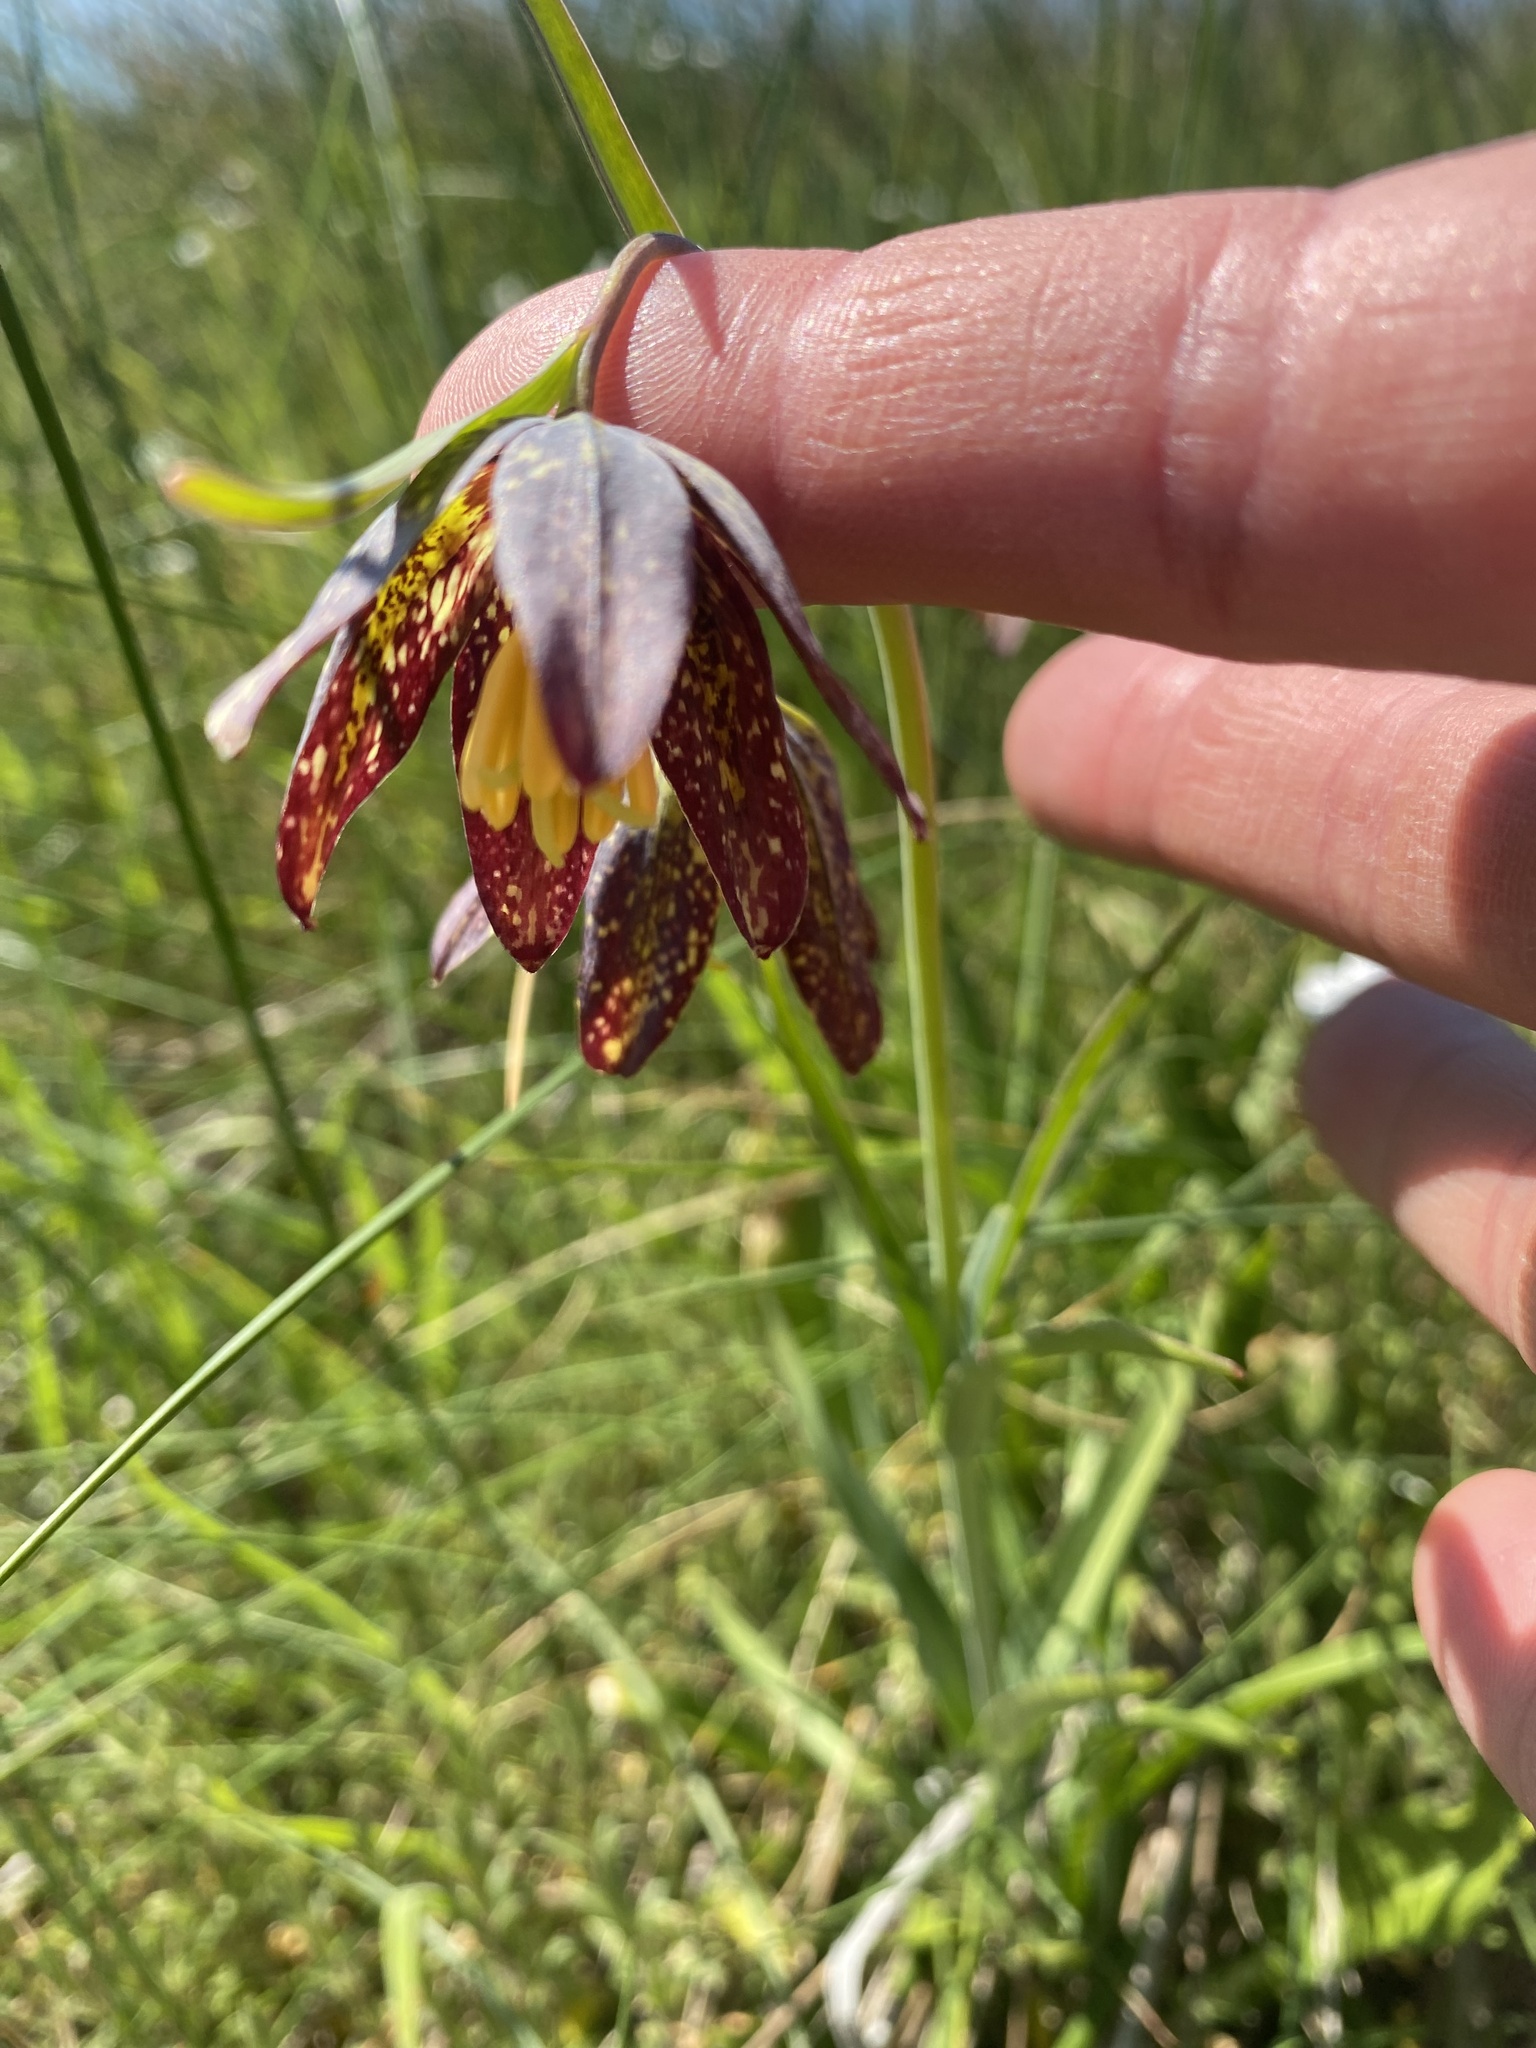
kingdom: Plantae
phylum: Tracheophyta
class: Liliopsida
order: Liliales
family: Liliaceae
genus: Fritillaria
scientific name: Fritillaria affinis
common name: Ojai fritillary
